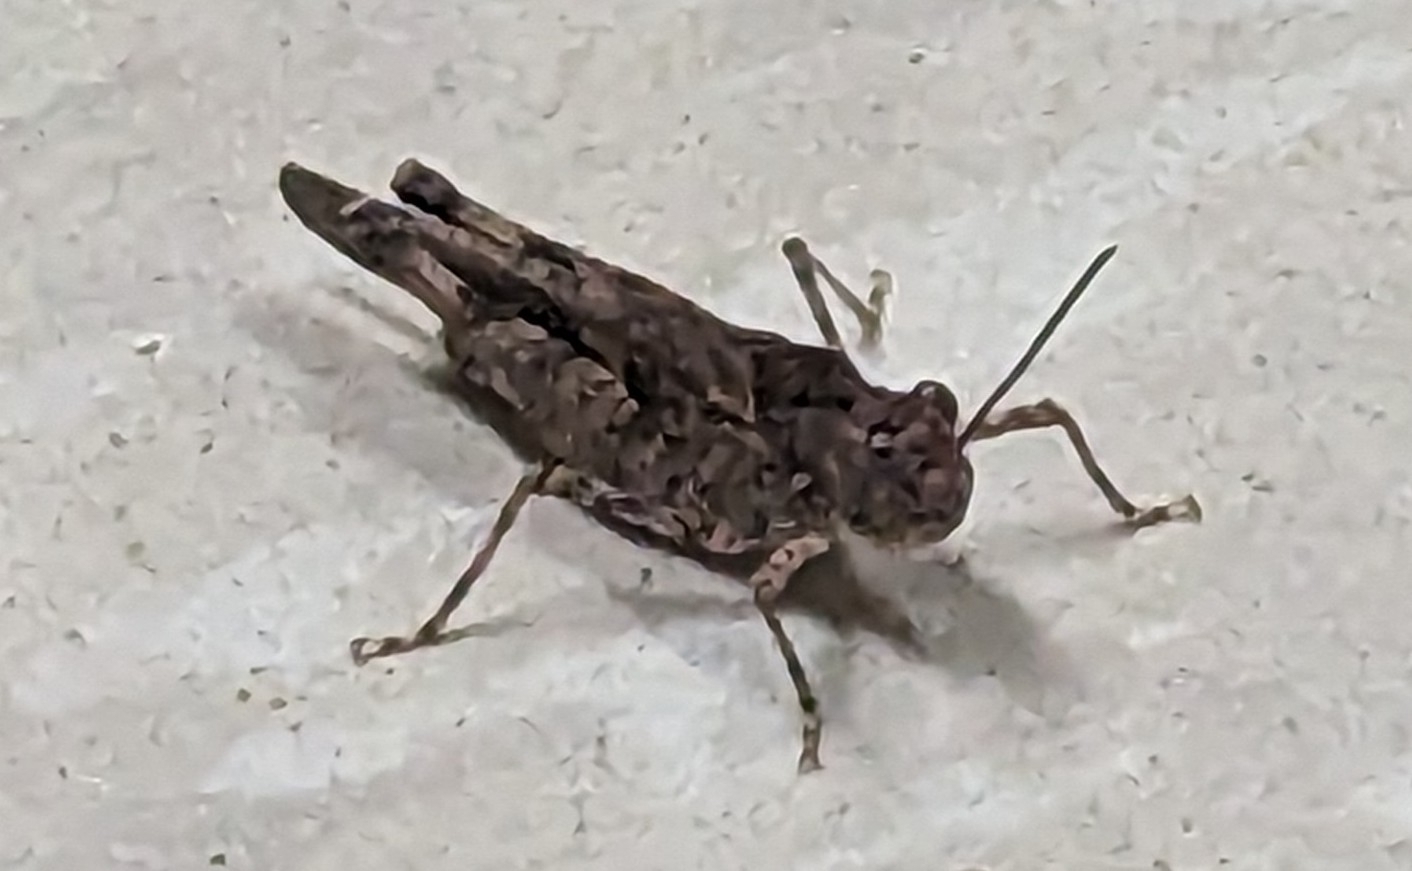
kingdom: Animalia
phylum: Arthropoda
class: Insecta
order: Orthoptera
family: Acrididae
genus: Trachyrhachys
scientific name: Trachyrhachys kiowa
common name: Kiowa grasshopper
